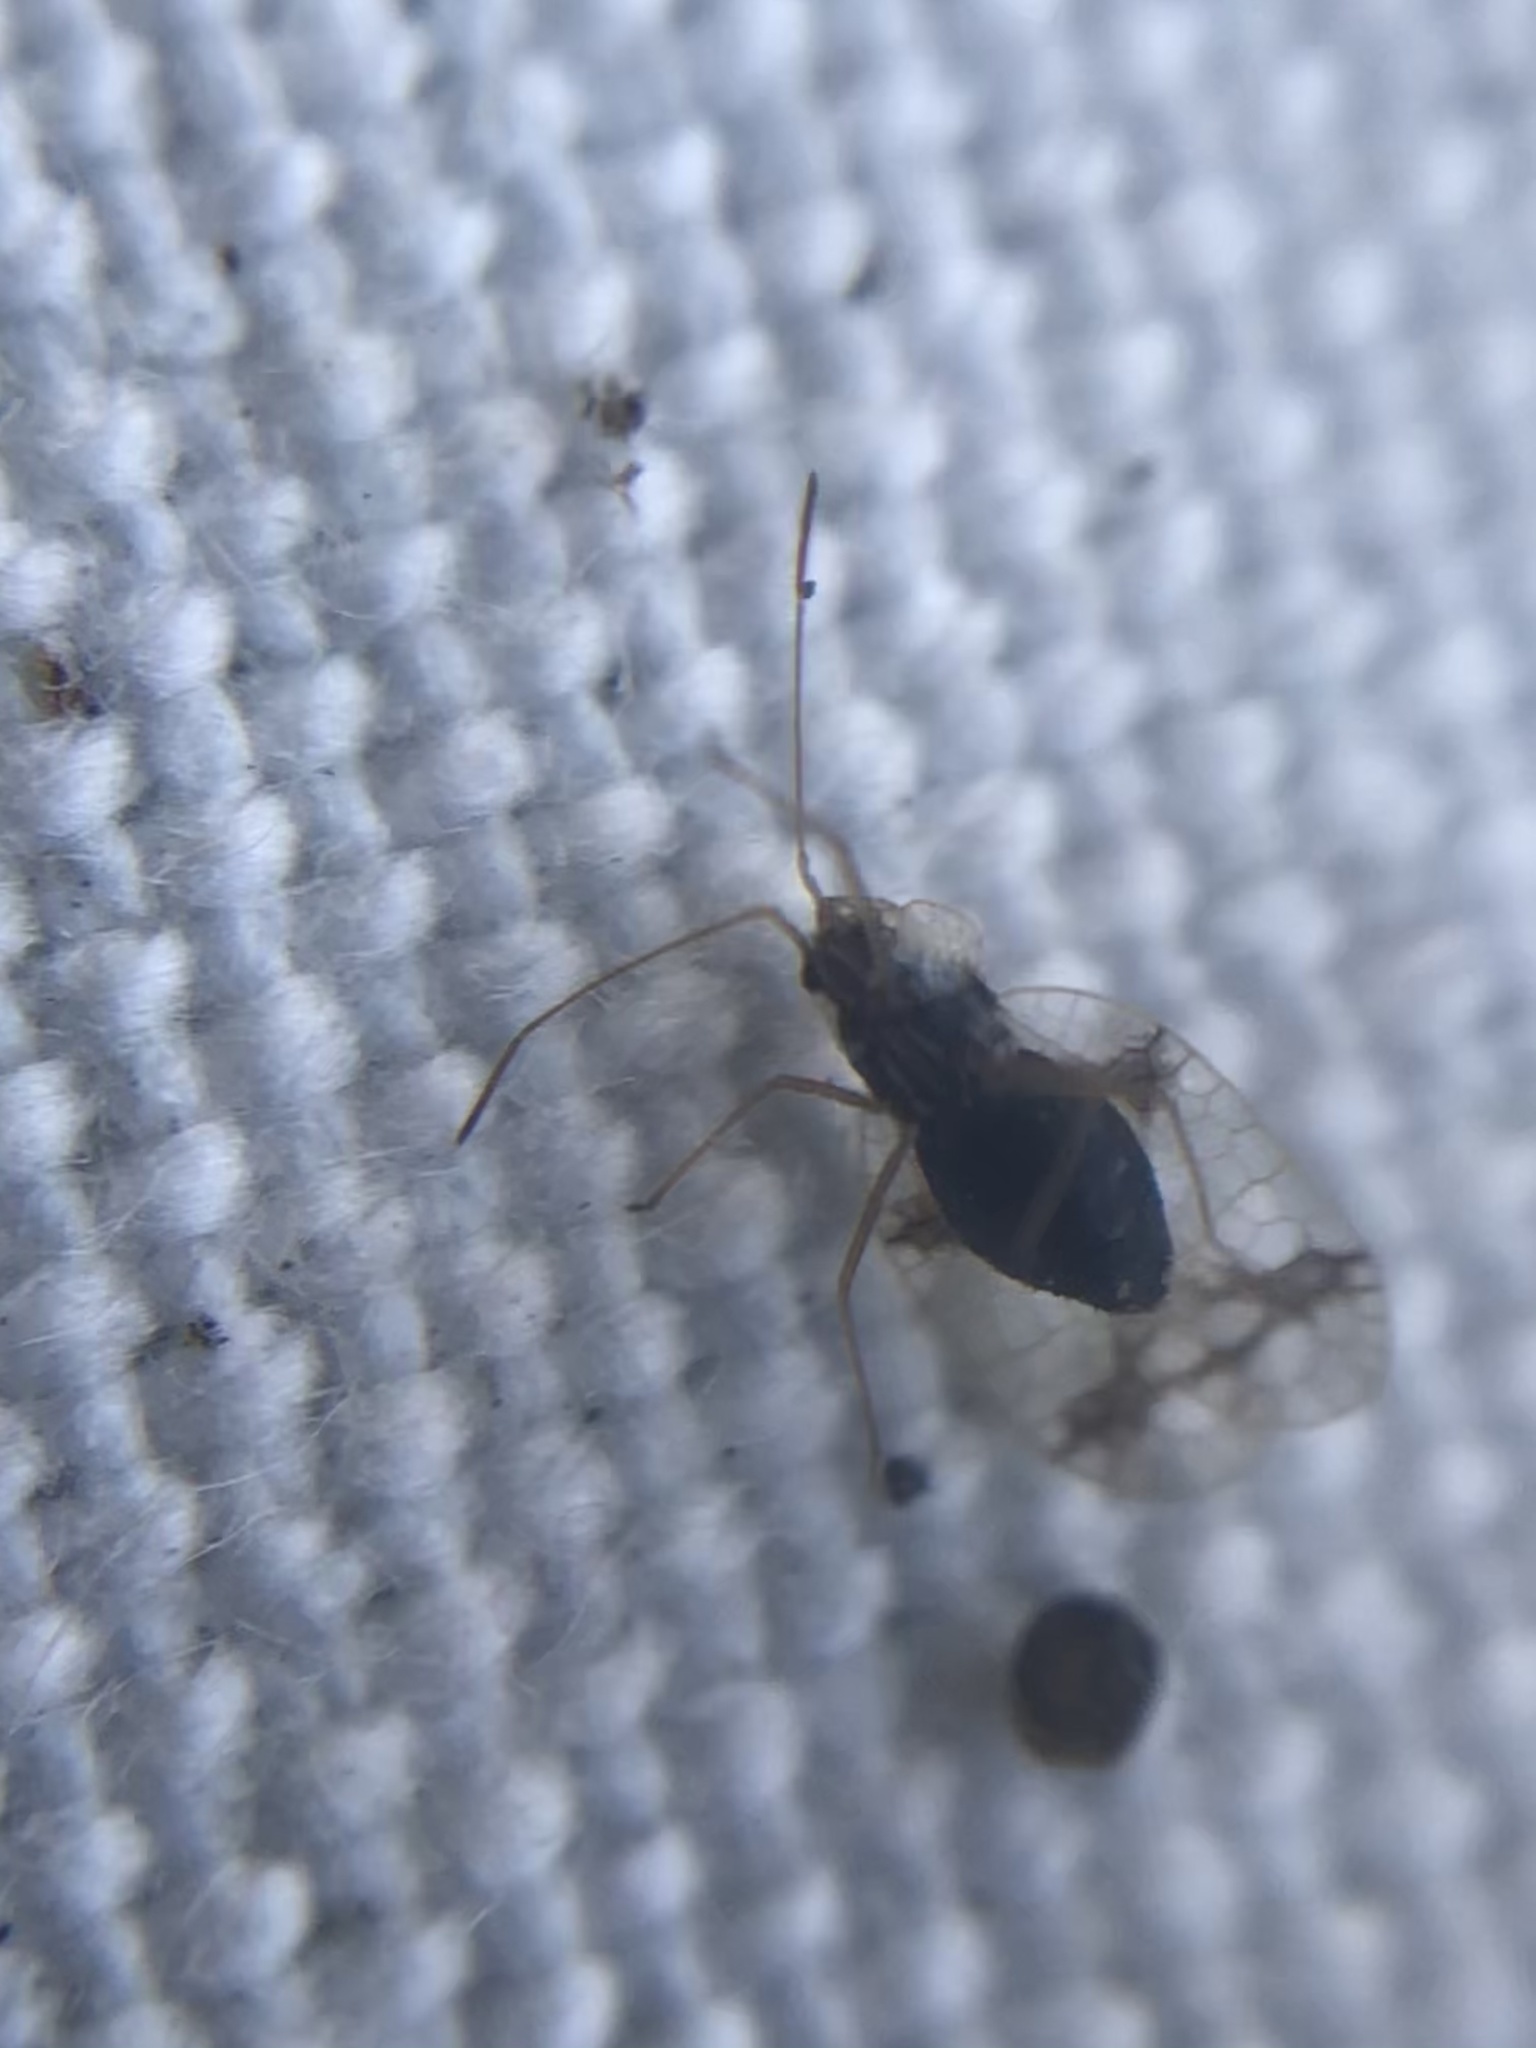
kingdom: Animalia
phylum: Arthropoda
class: Insecta
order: Hemiptera
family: Tingidae
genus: Stephanitis
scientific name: Stephanitis pyrioides
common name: Azalea lace bug
